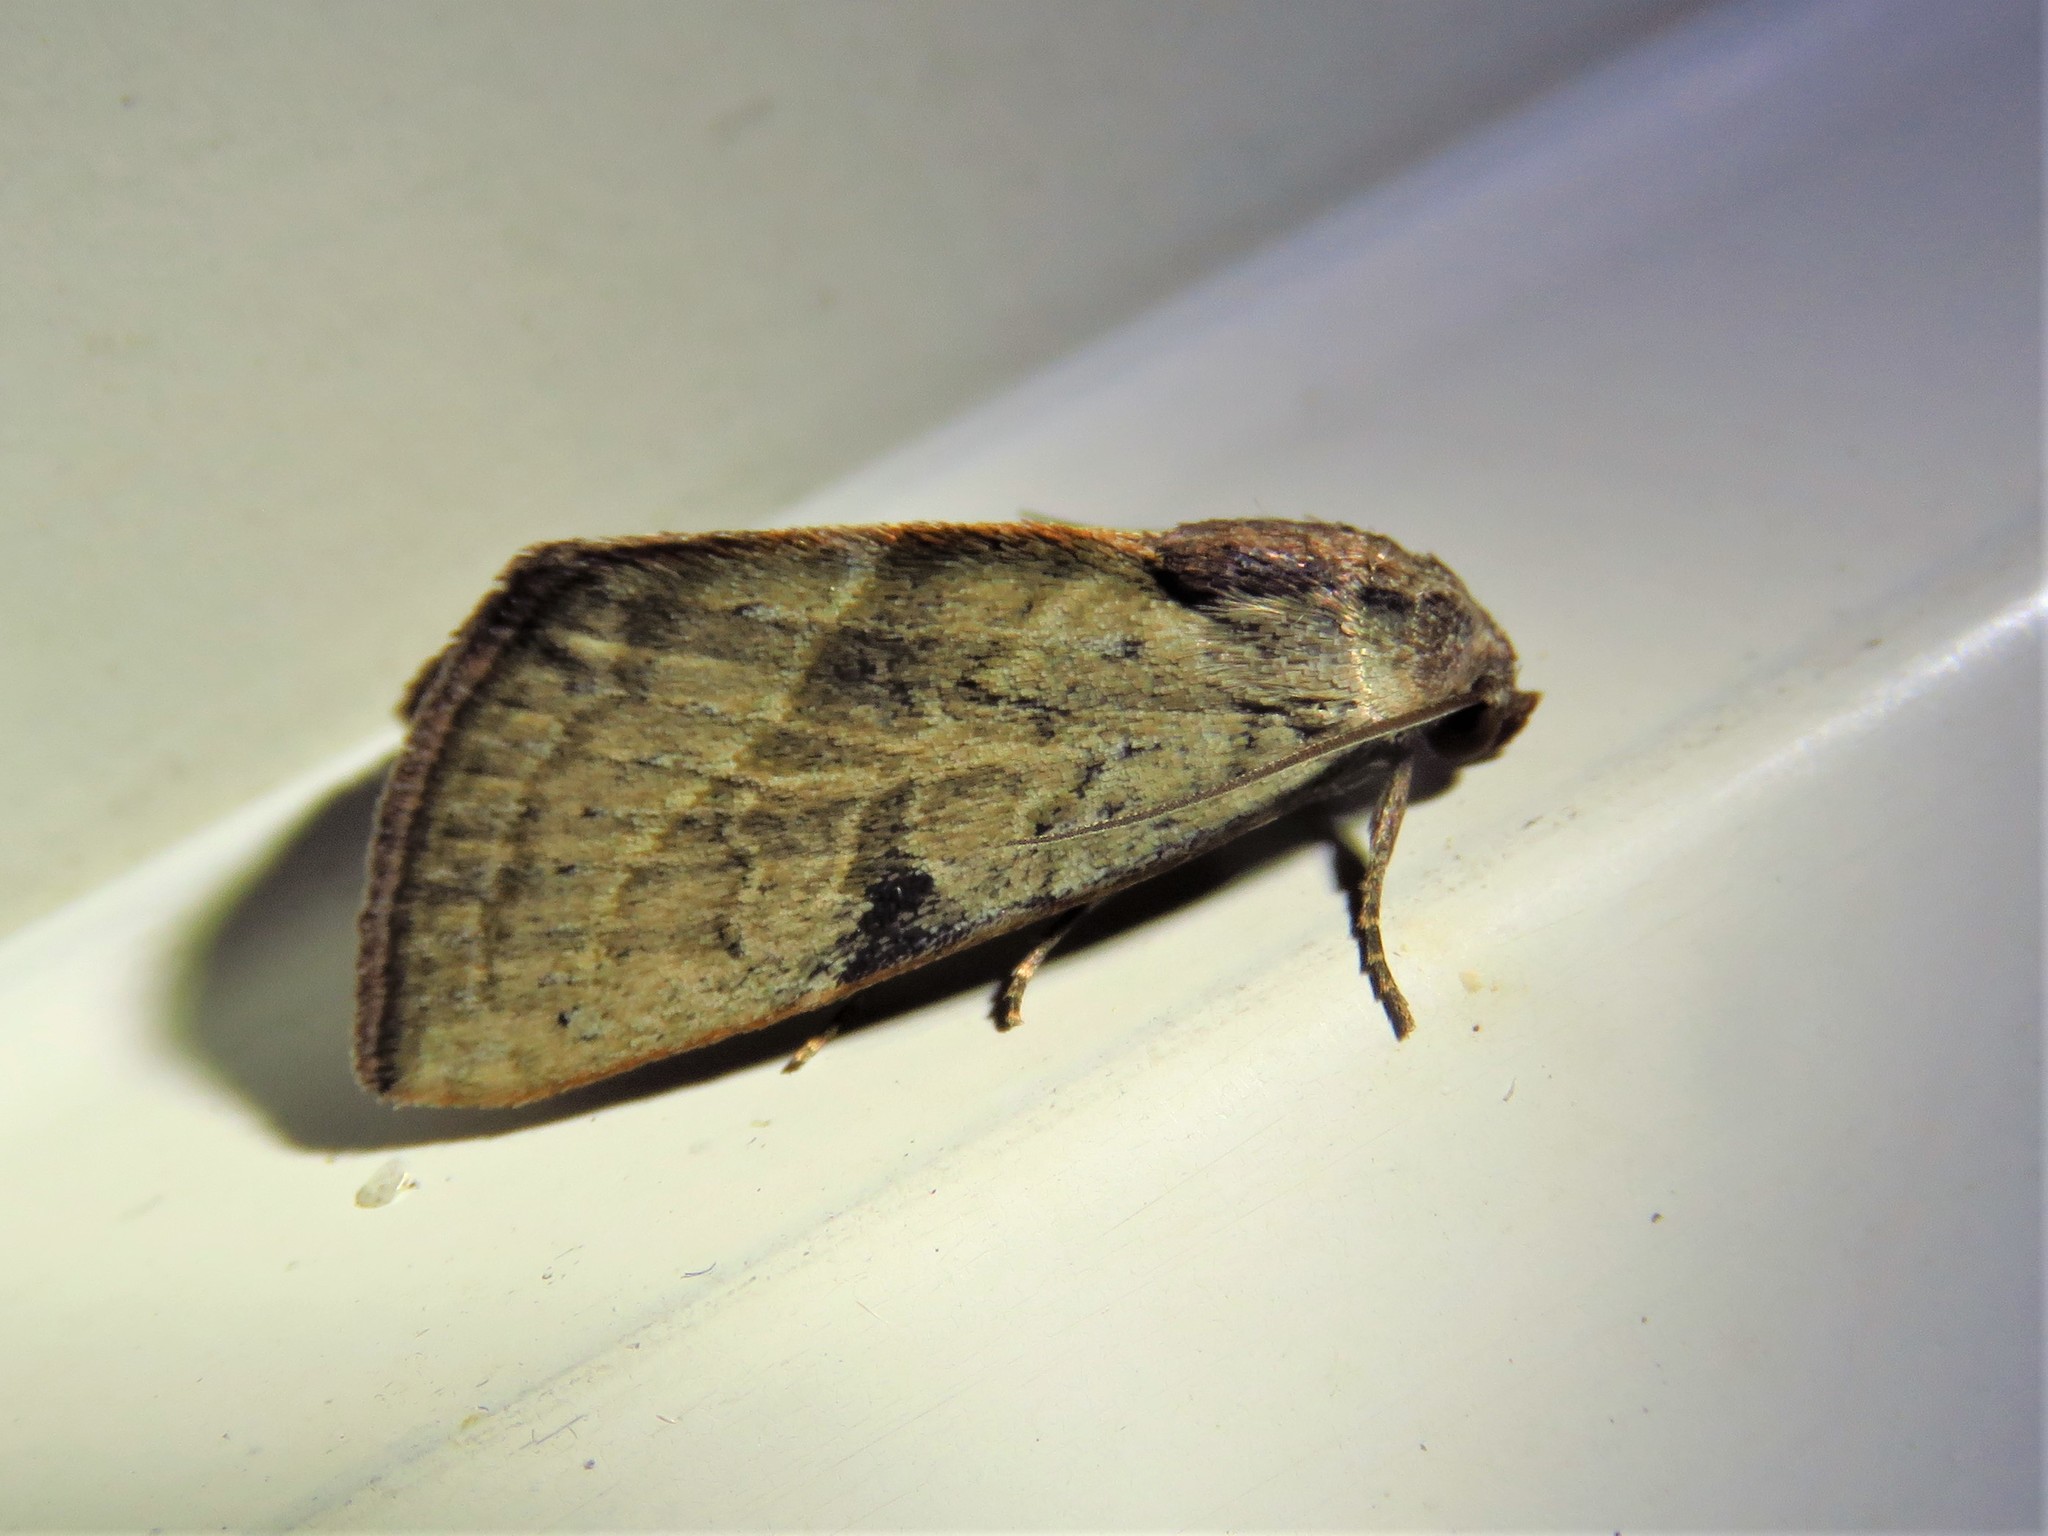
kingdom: Animalia
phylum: Arthropoda
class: Insecta
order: Lepidoptera
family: Noctuidae
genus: Galgula
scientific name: Galgula partita
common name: Wedgeling
